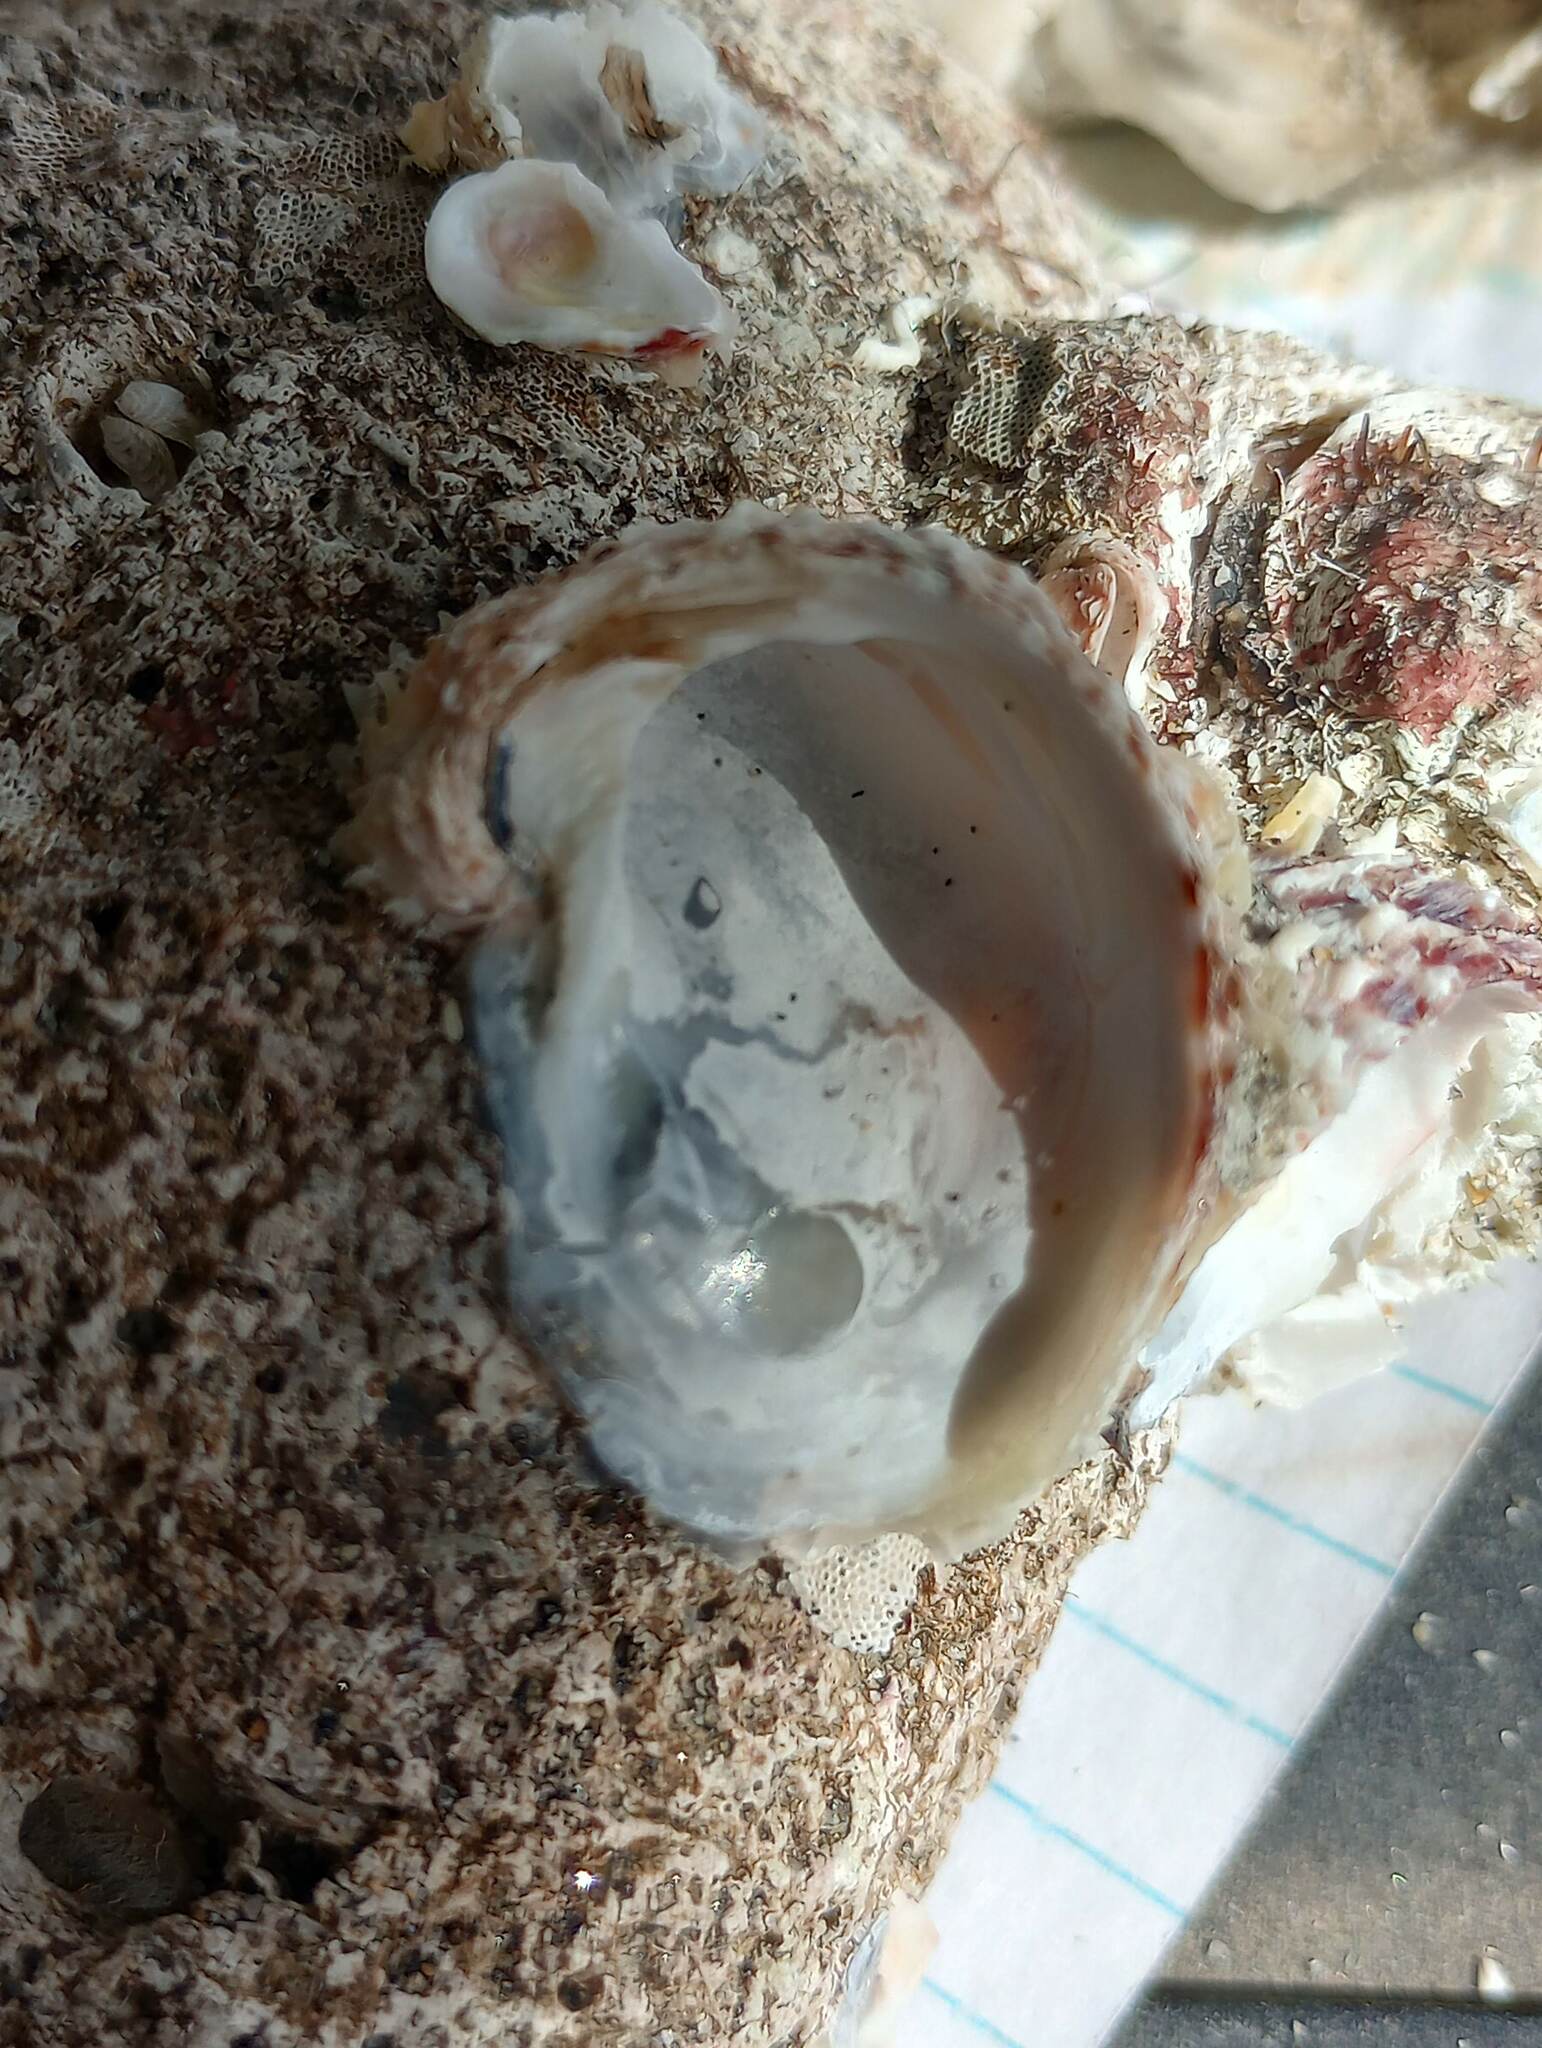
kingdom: Animalia
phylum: Mollusca
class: Bivalvia
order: Venerida
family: Chamidae
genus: Pseudochama
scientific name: Pseudochama exogyra
